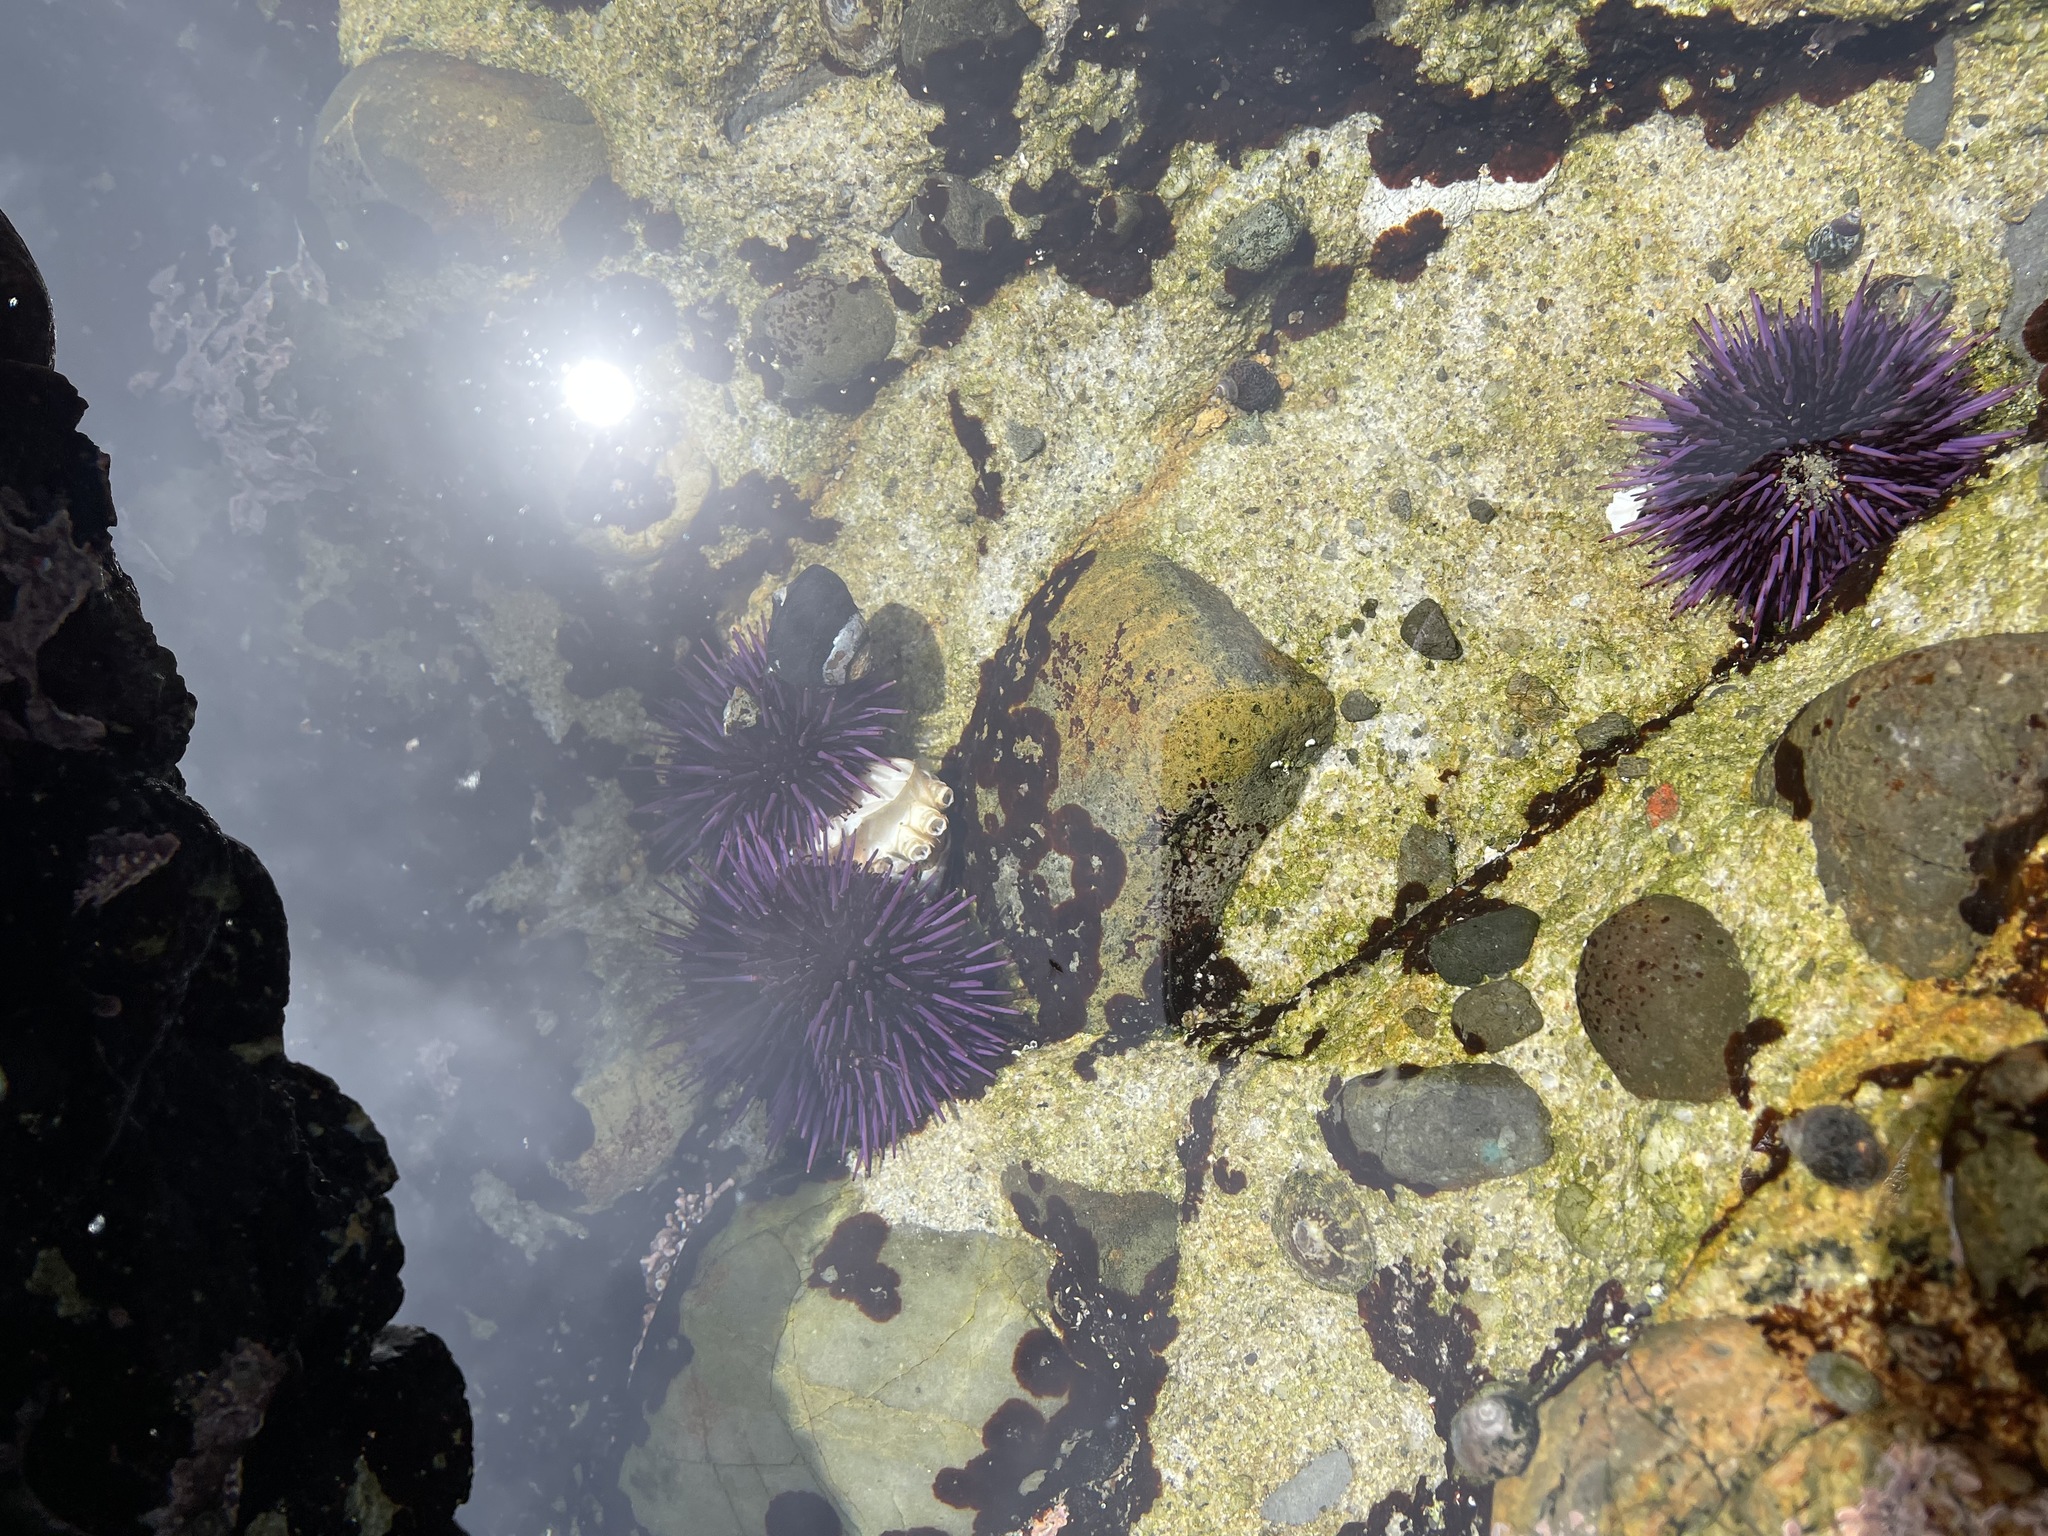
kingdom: Animalia
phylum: Echinodermata
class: Echinoidea
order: Camarodonta
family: Strongylocentrotidae
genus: Strongylocentrotus
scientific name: Strongylocentrotus purpuratus
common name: Purple sea urchin
